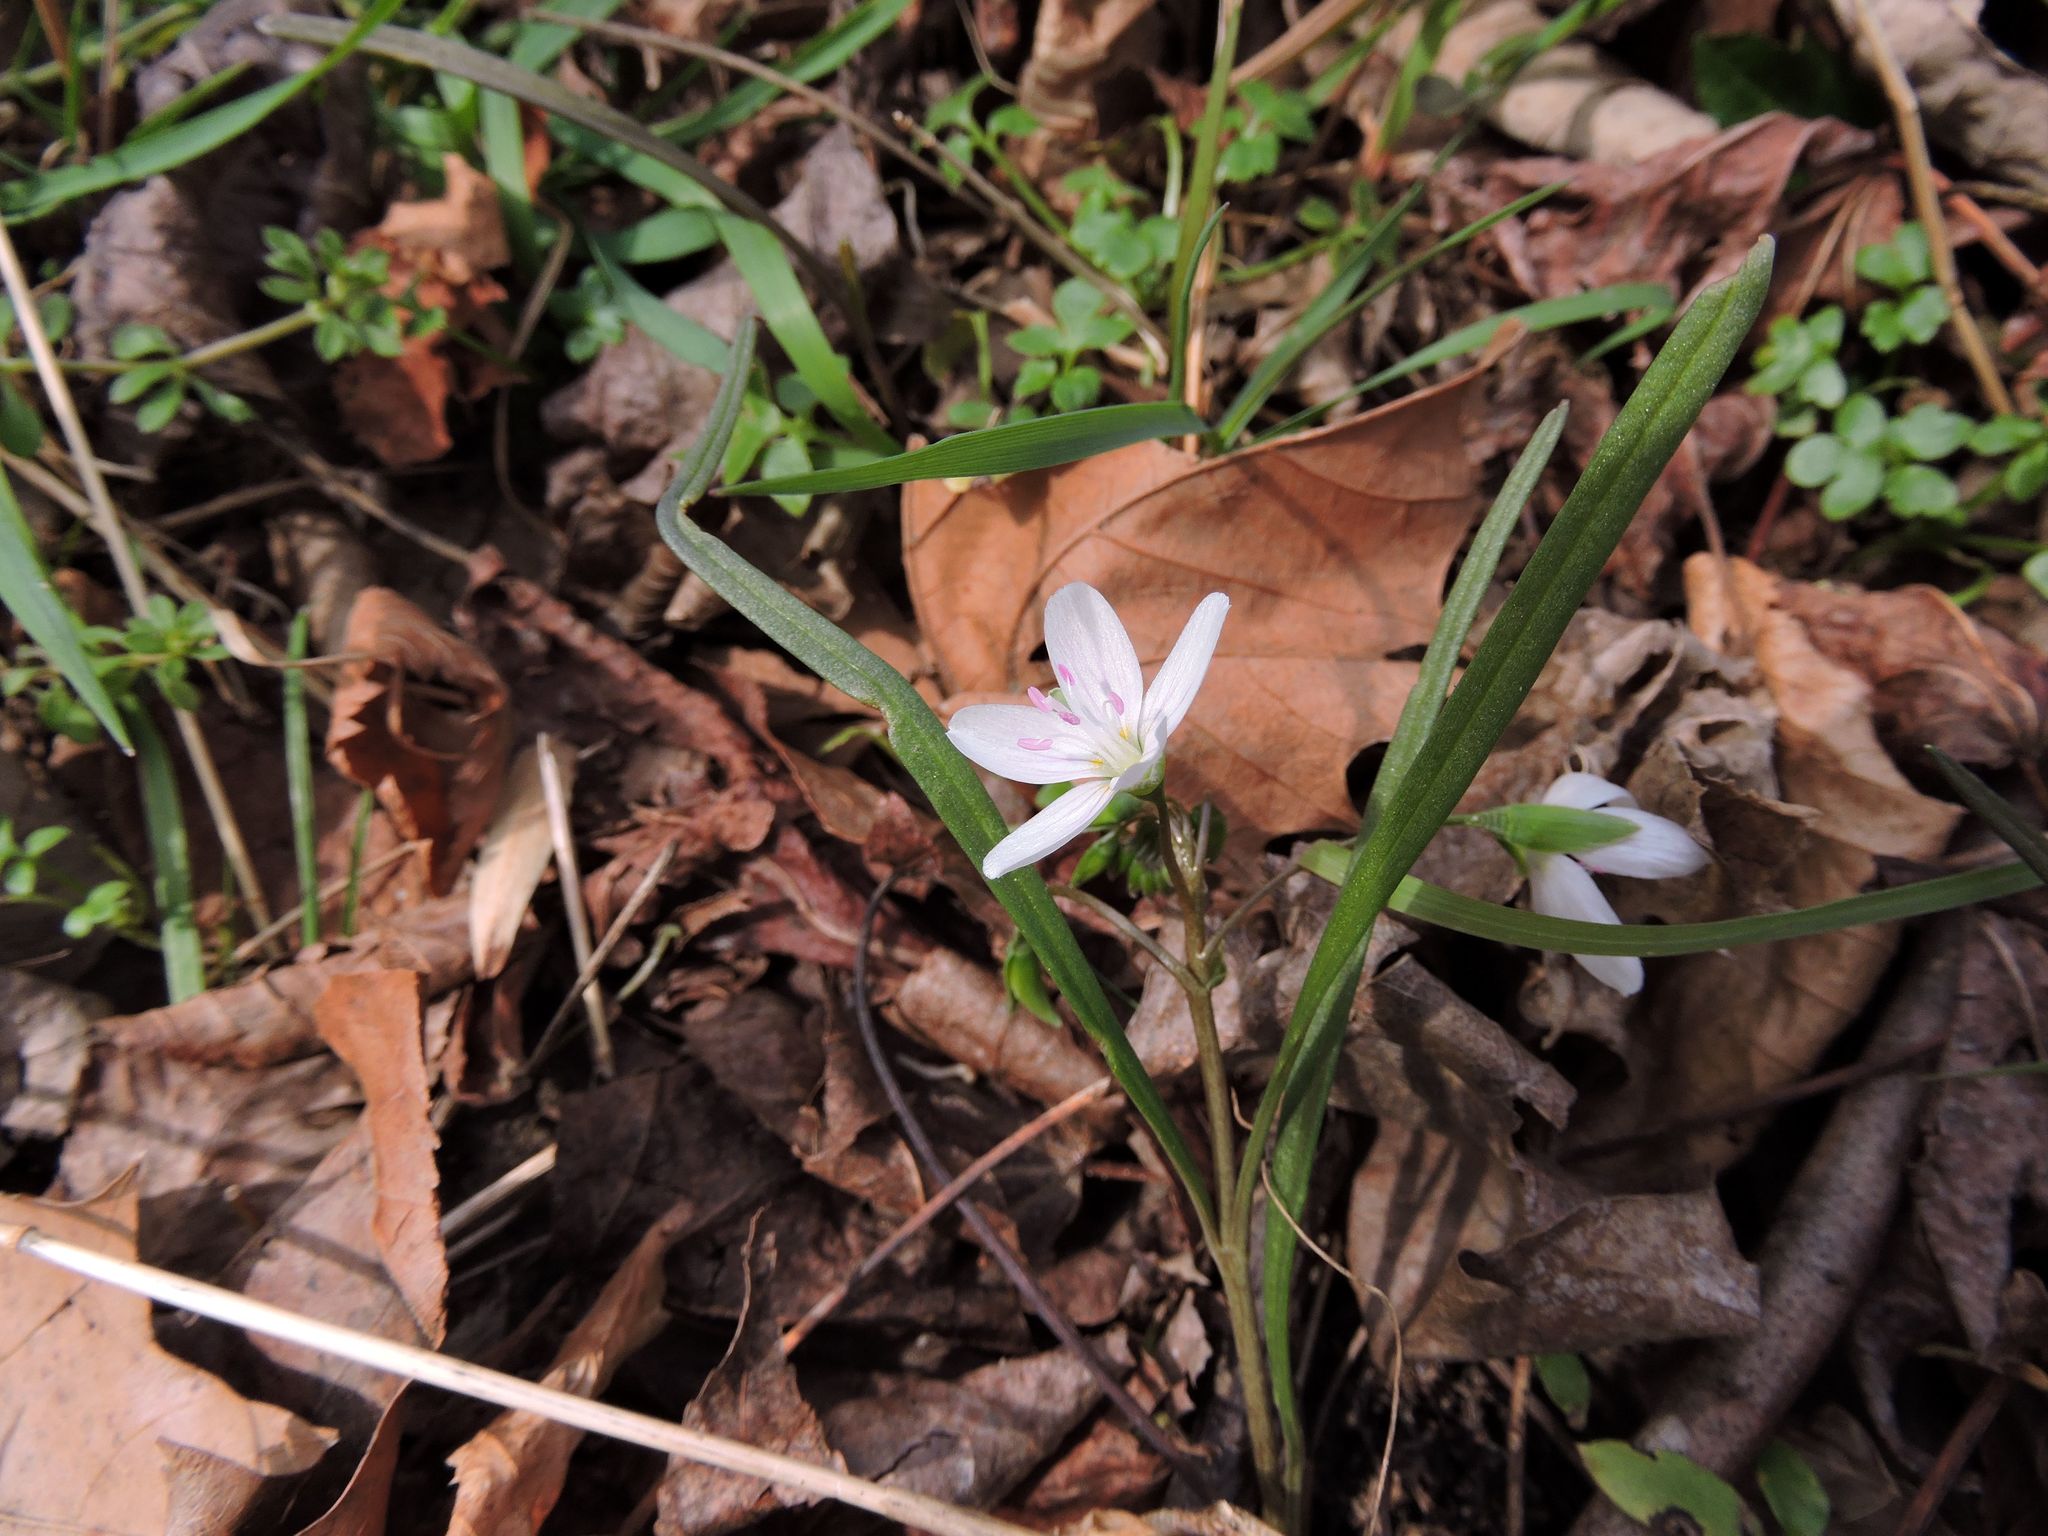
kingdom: Plantae
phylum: Tracheophyta
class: Magnoliopsida
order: Caryophyllales
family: Montiaceae
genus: Claytonia
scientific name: Claytonia virginica
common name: Virginia springbeauty
